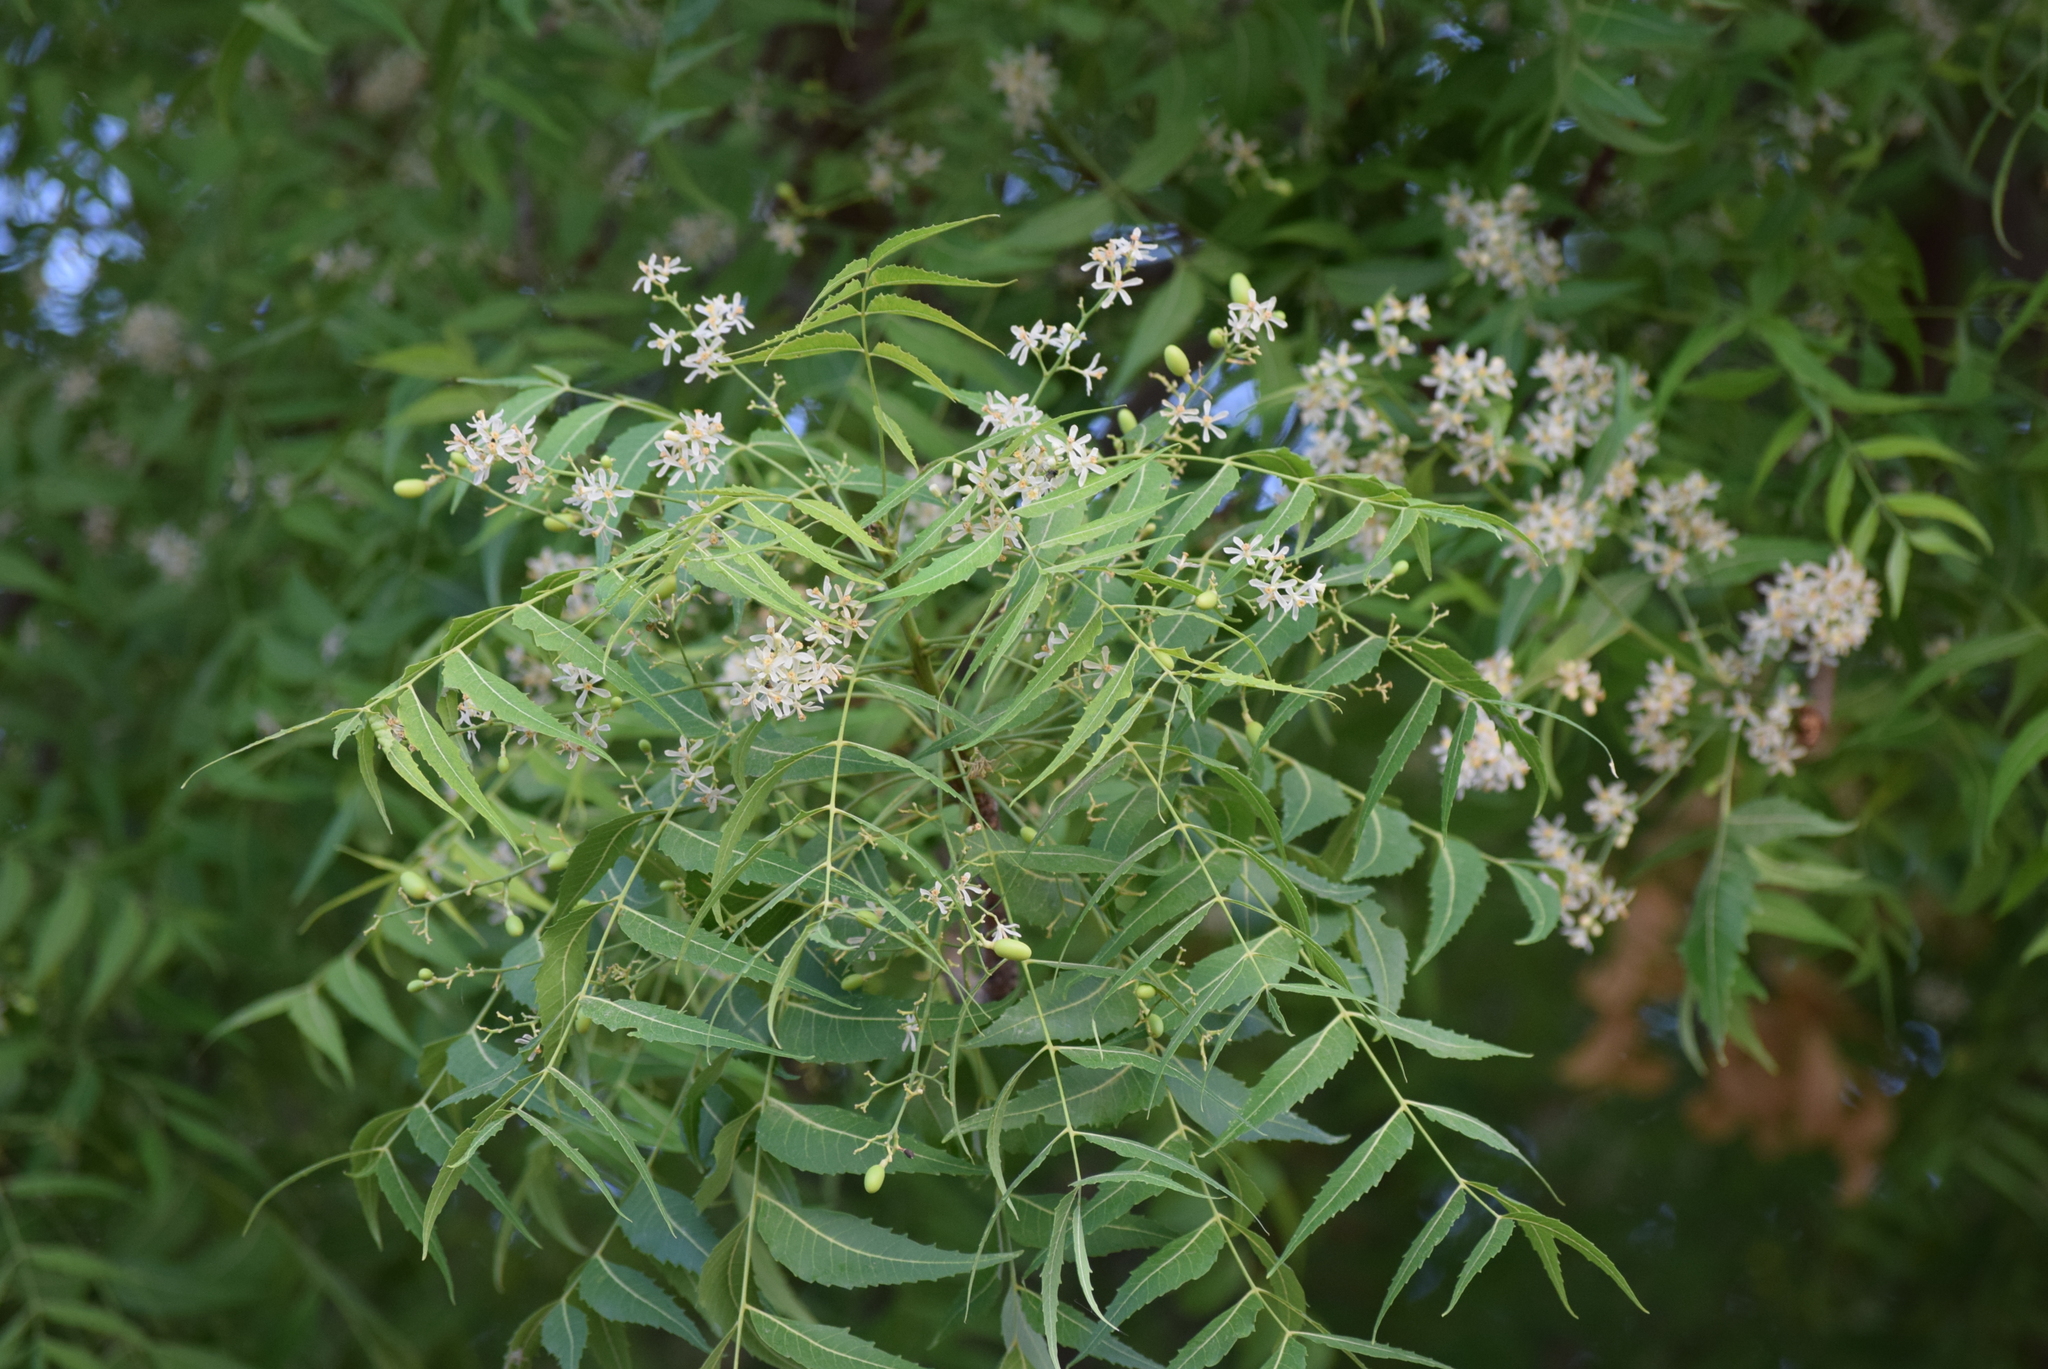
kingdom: Plantae
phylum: Tracheophyta
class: Magnoliopsida
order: Sapindales
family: Meliaceae
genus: Azadirachta
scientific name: Azadirachta indica
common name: Neem
